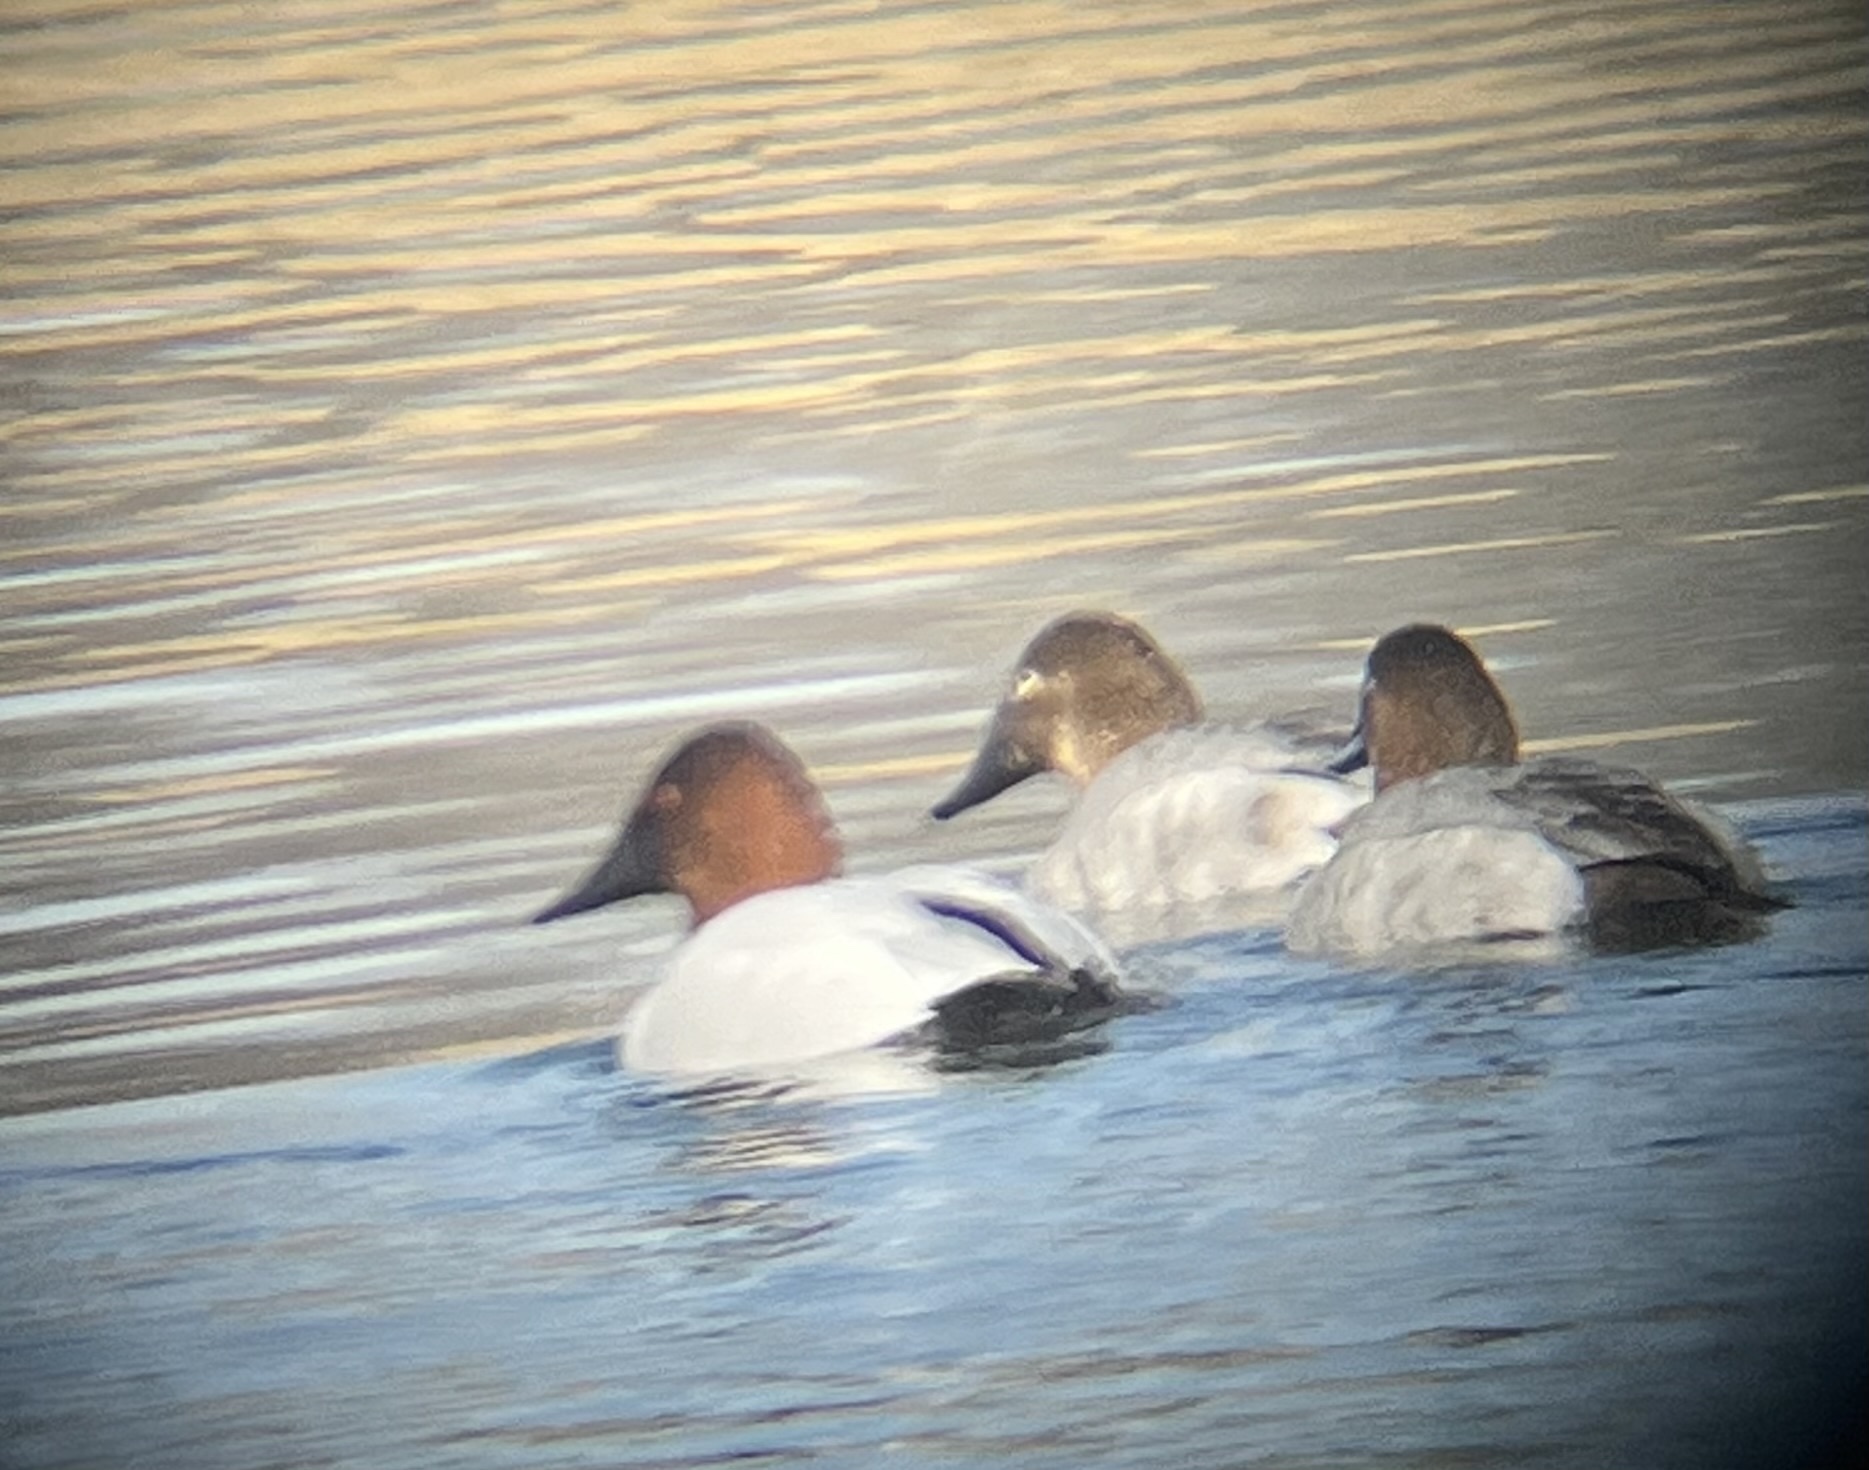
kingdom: Animalia
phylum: Chordata
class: Aves
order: Anseriformes
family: Anatidae
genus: Aythya
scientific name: Aythya valisineria
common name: Canvasback
